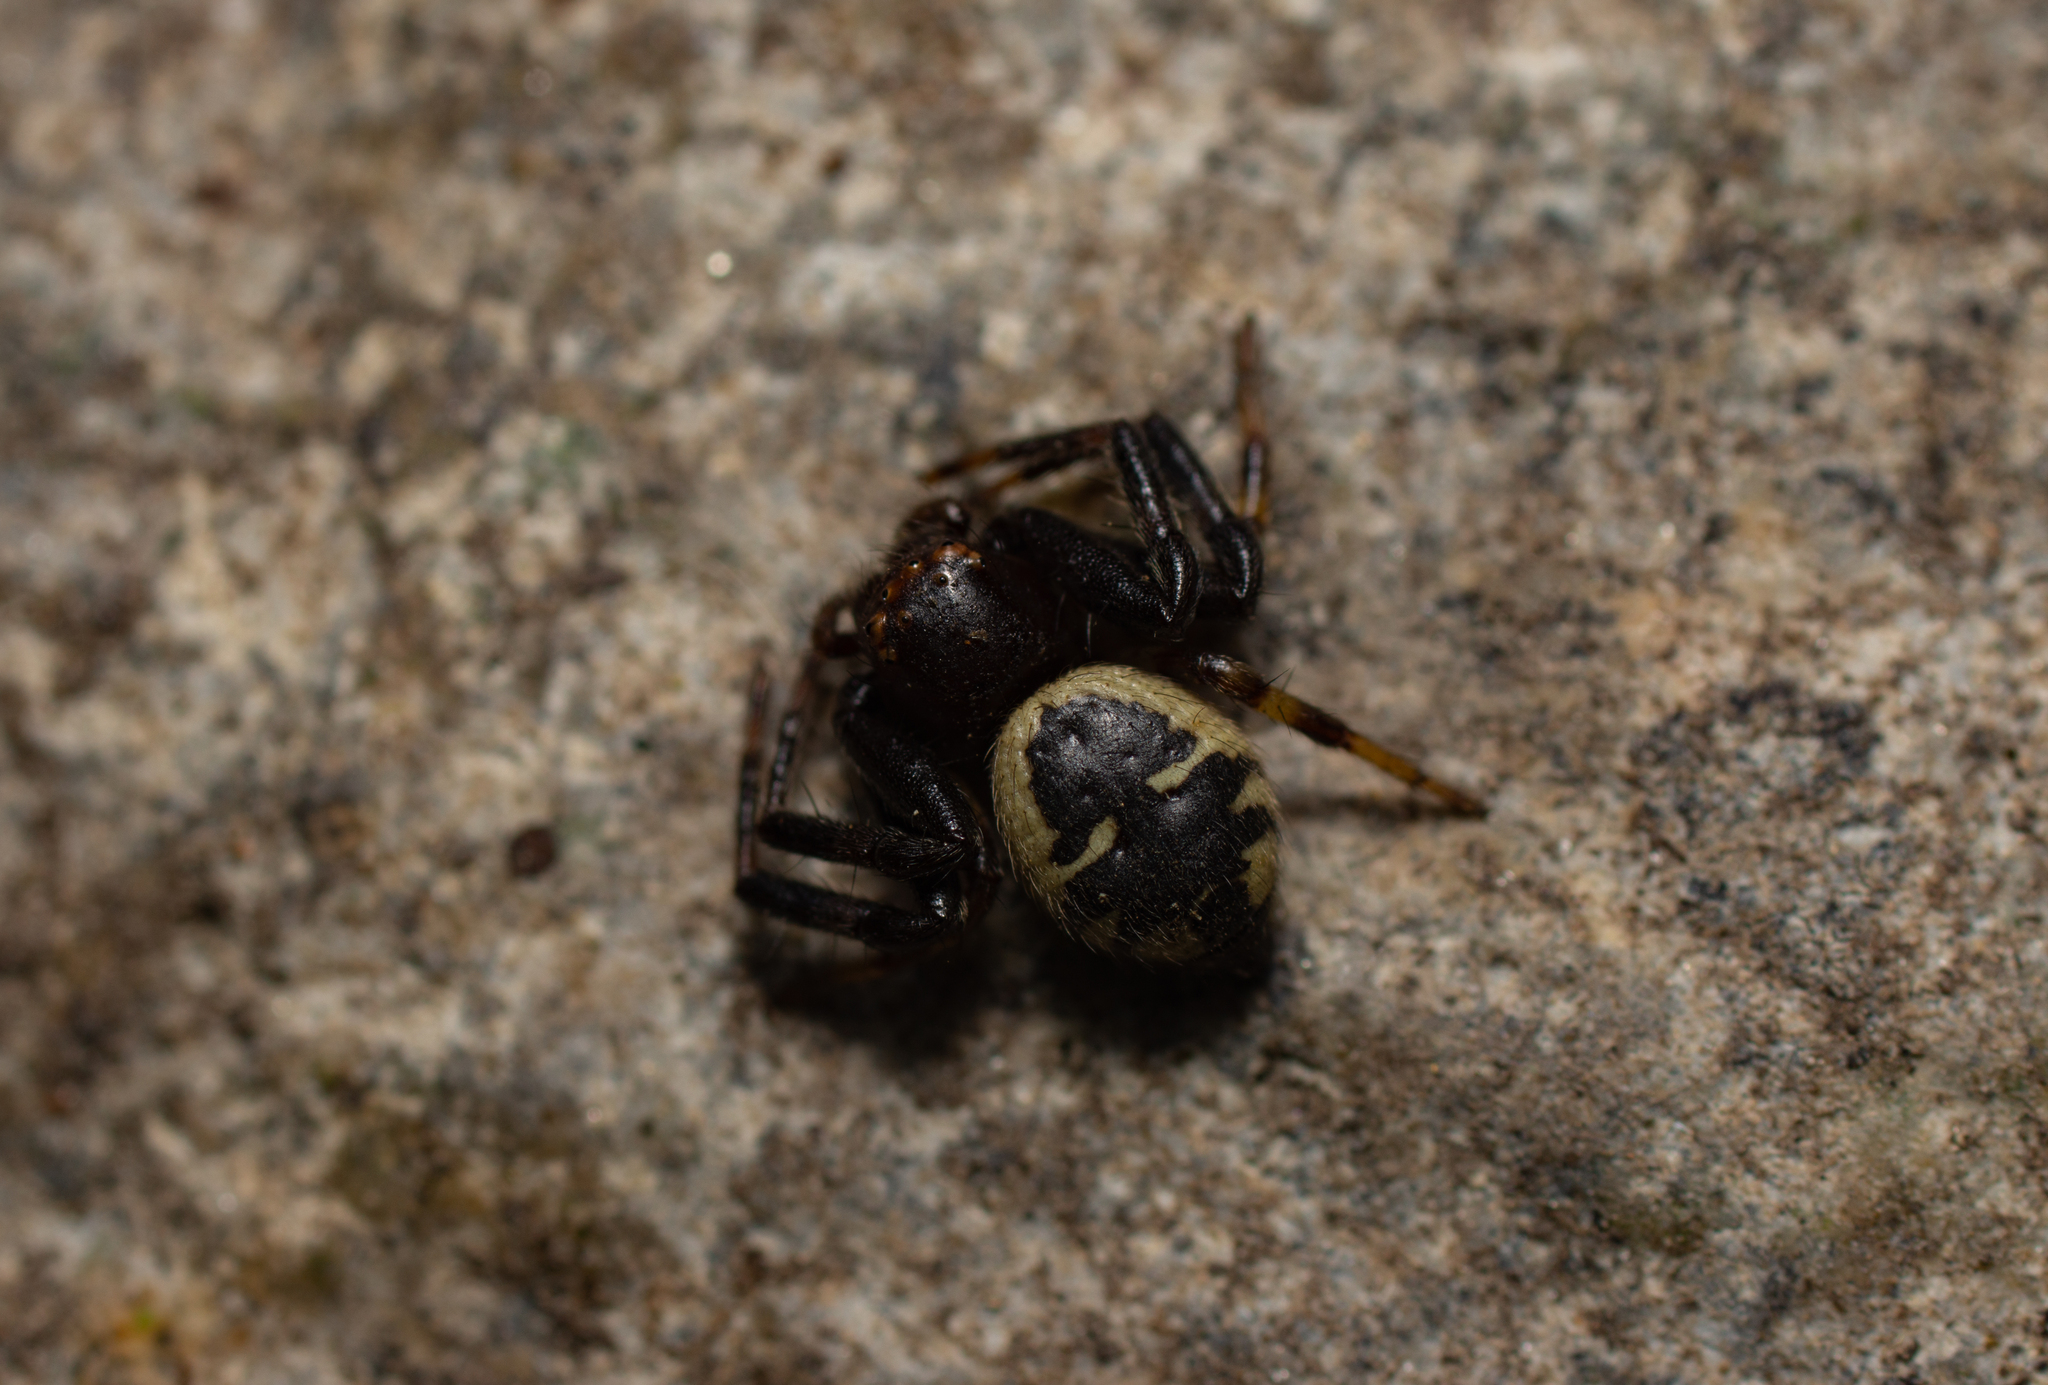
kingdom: Animalia
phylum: Arthropoda
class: Arachnida
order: Araneae
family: Thomisidae
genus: Synema
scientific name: Synema globosum
